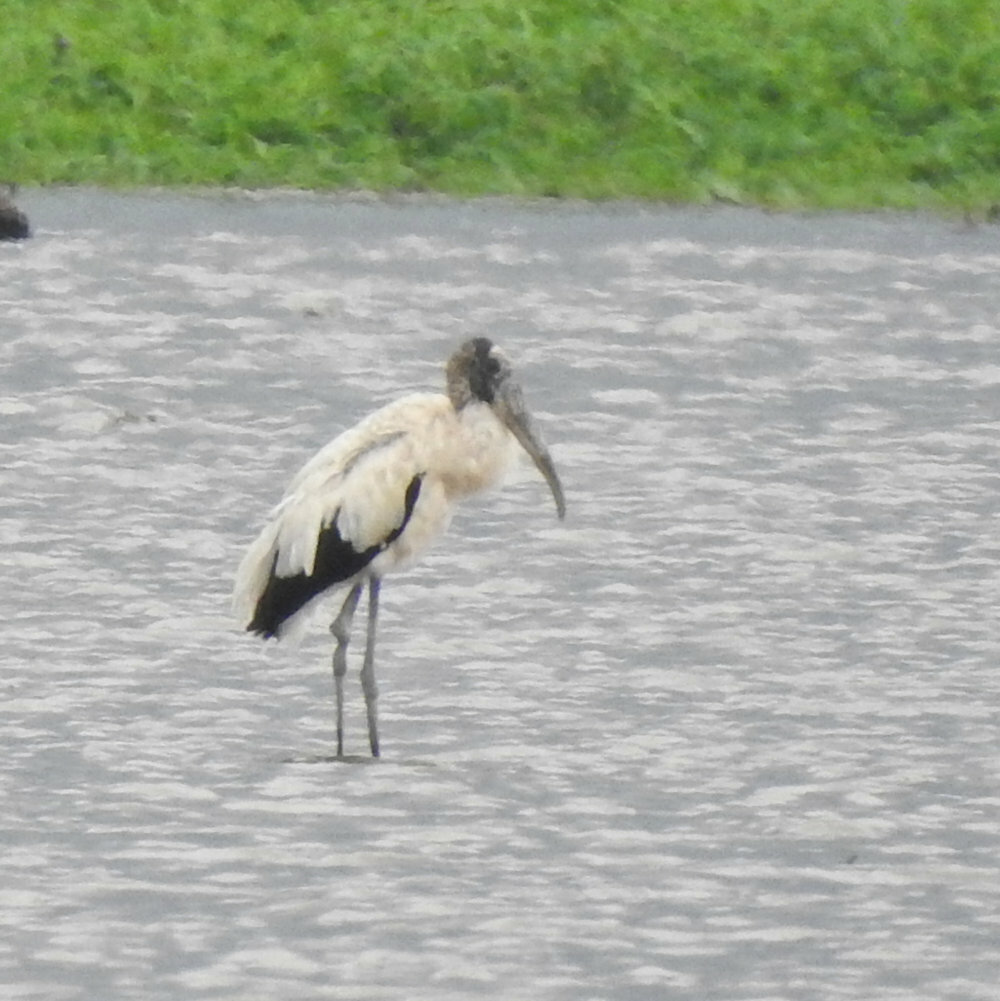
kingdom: Animalia
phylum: Chordata
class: Aves
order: Ciconiiformes
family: Ciconiidae
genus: Mycteria
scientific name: Mycteria americana
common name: Wood stork
